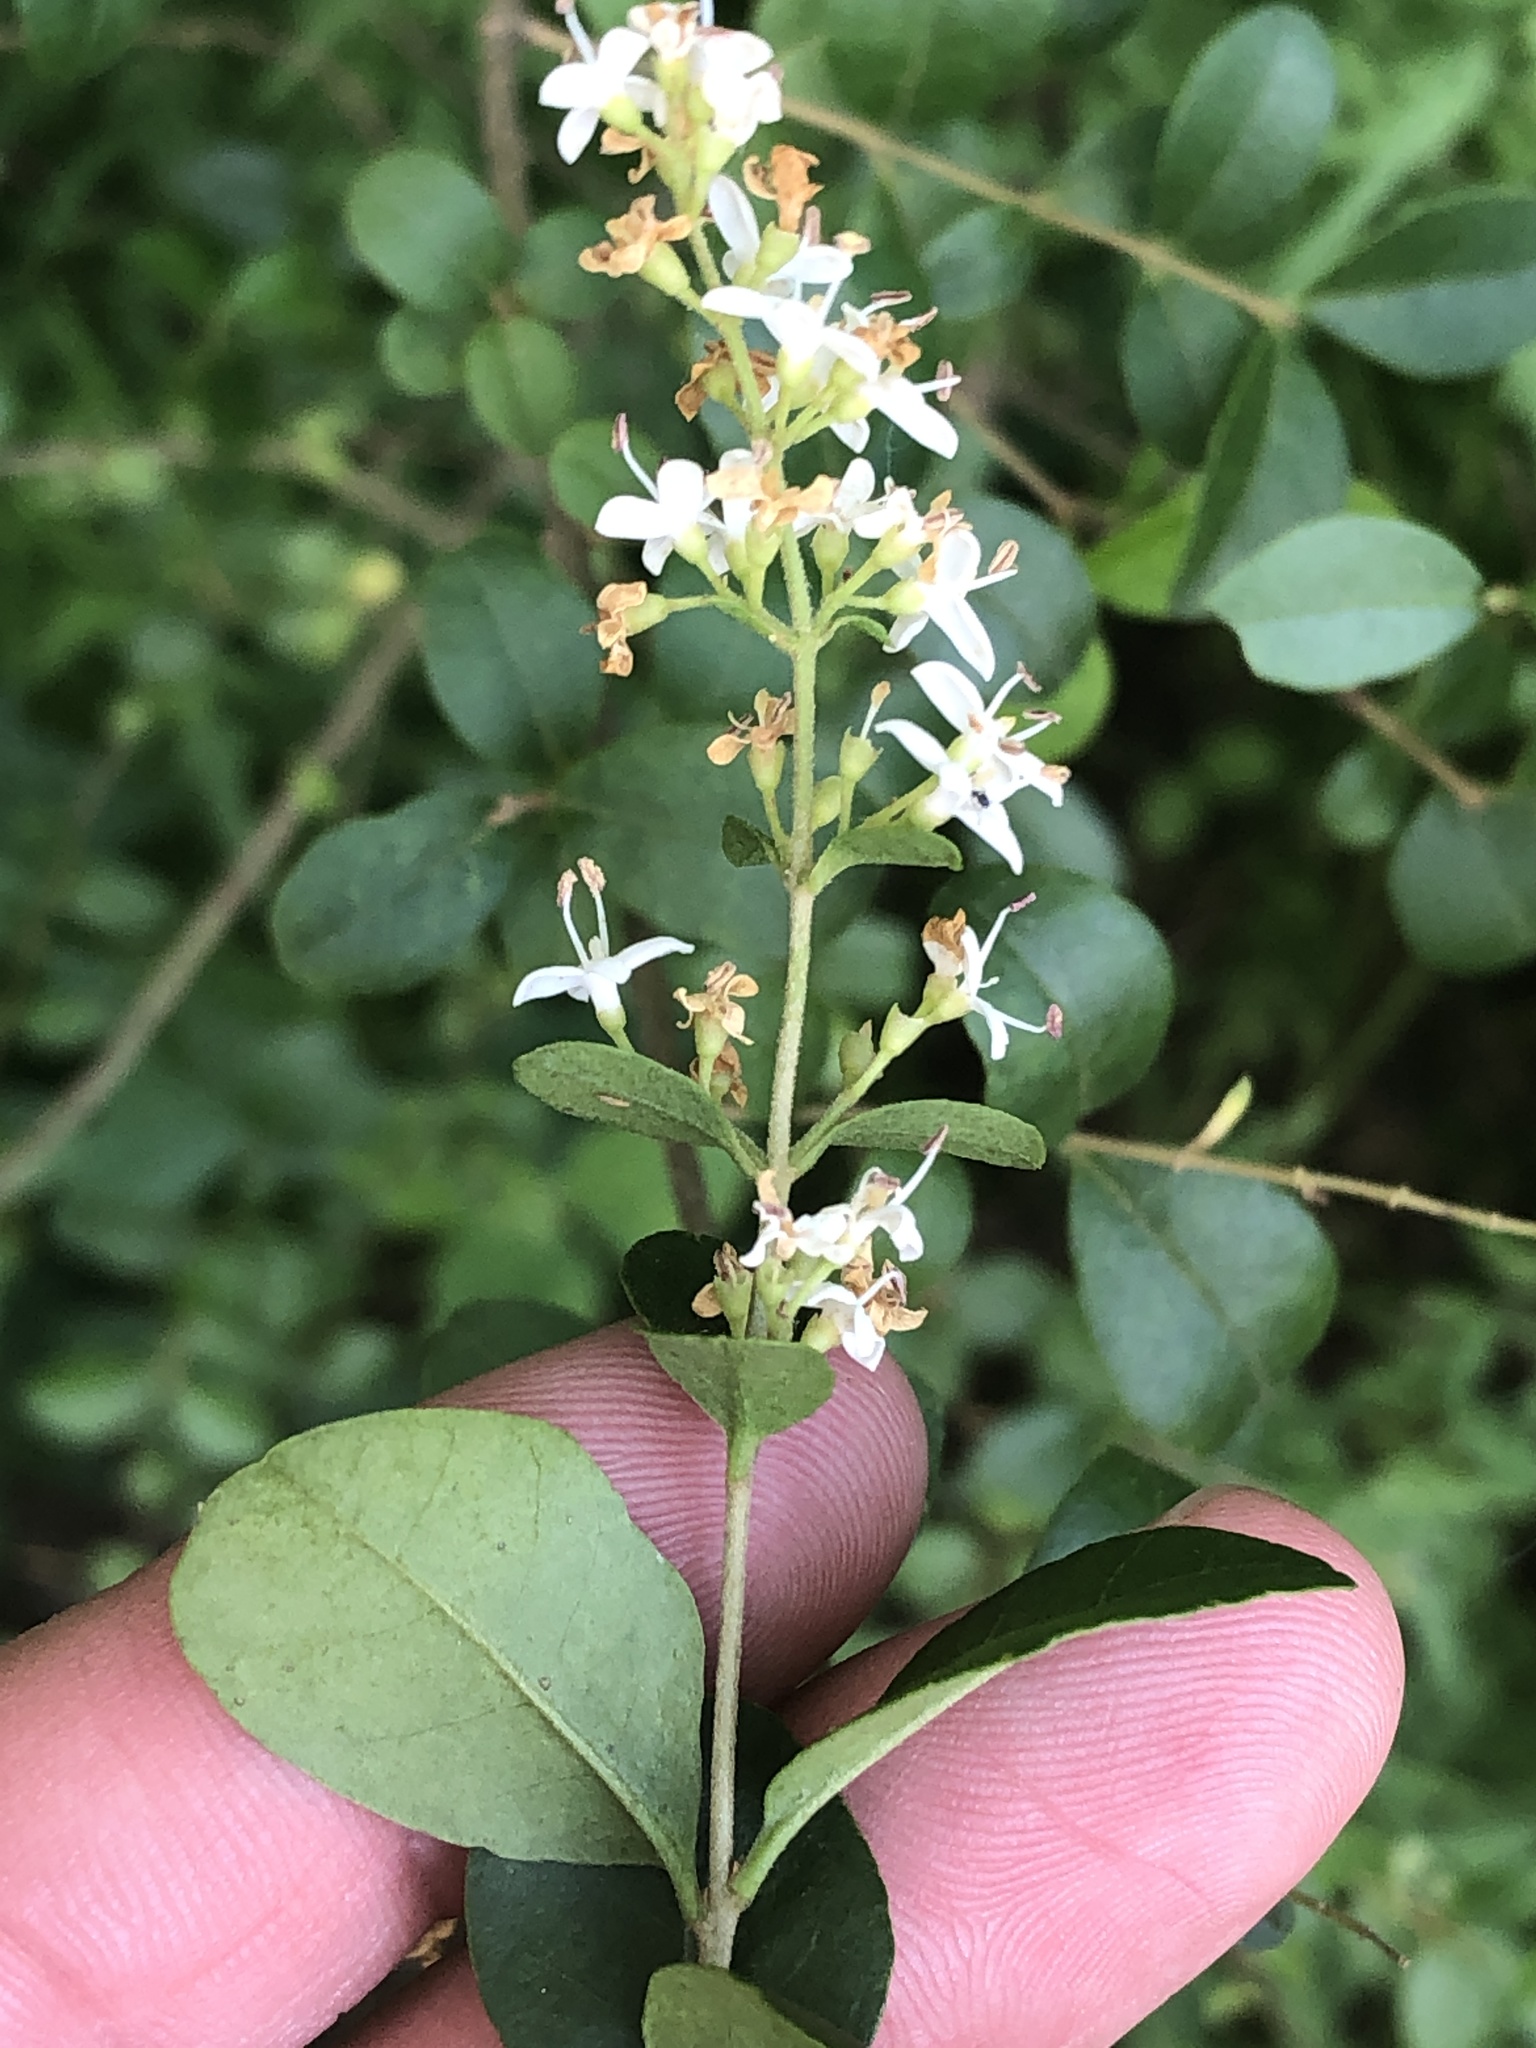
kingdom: Plantae
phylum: Tracheophyta
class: Magnoliopsida
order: Lamiales
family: Oleaceae
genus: Ligustrum
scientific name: Ligustrum sinense
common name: Chinese privet
